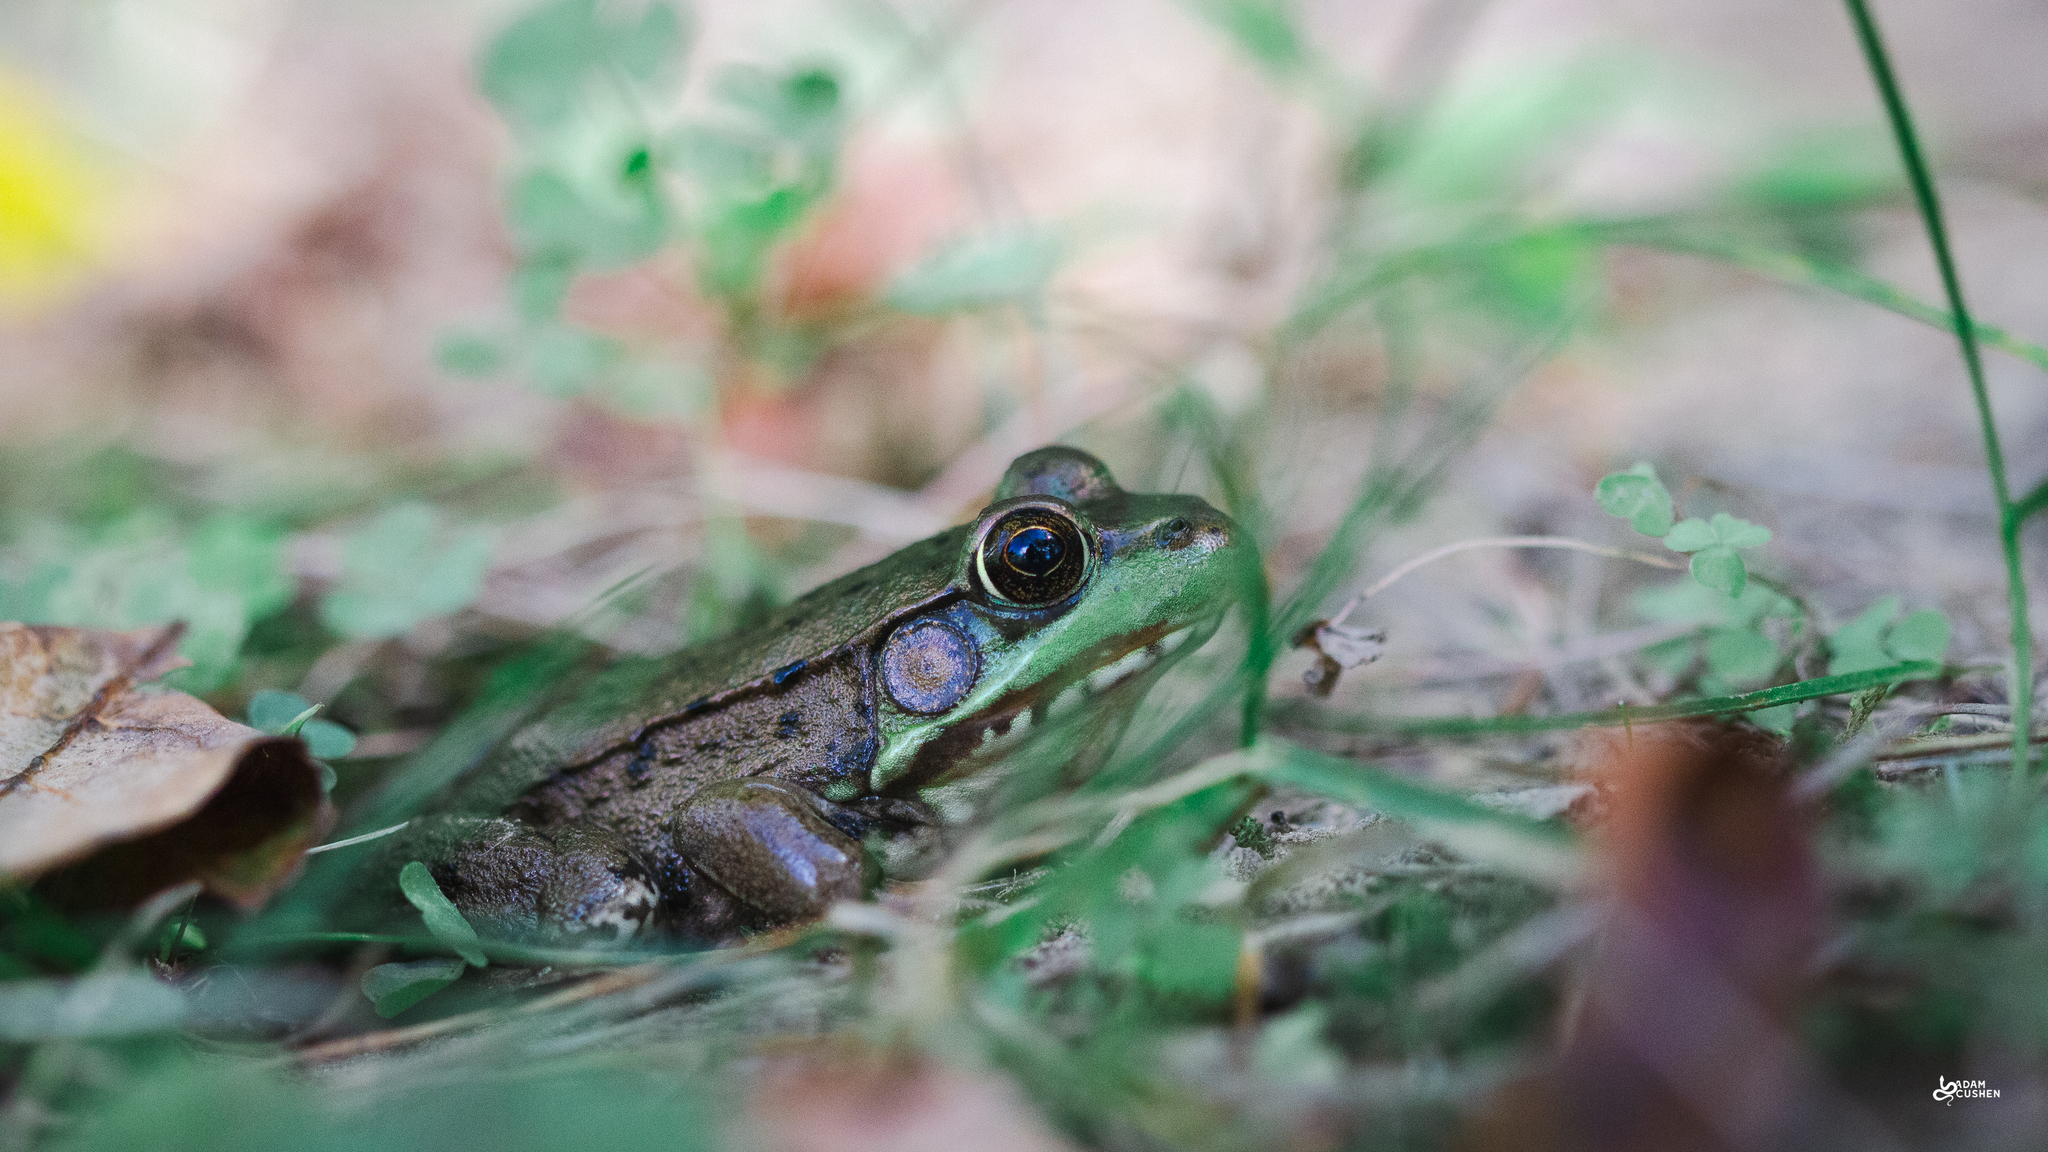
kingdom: Animalia
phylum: Chordata
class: Amphibia
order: Anura
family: Ranidae
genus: Lithobates
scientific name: Lithobates clamitans
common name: Green frog
